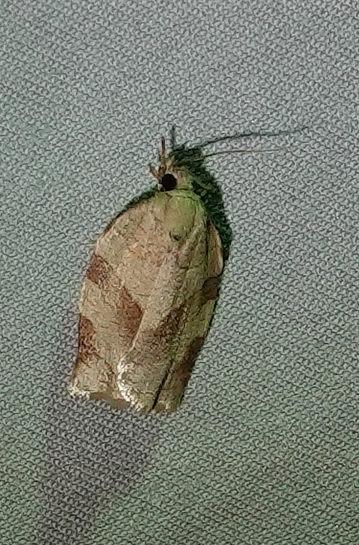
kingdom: Animalia
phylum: Arthropoda
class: Insecta
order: Lepidoptera
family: Tortricidae
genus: Choristoneura
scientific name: Choristoneura rosaceana
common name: Oblique-banded leafroller moth
